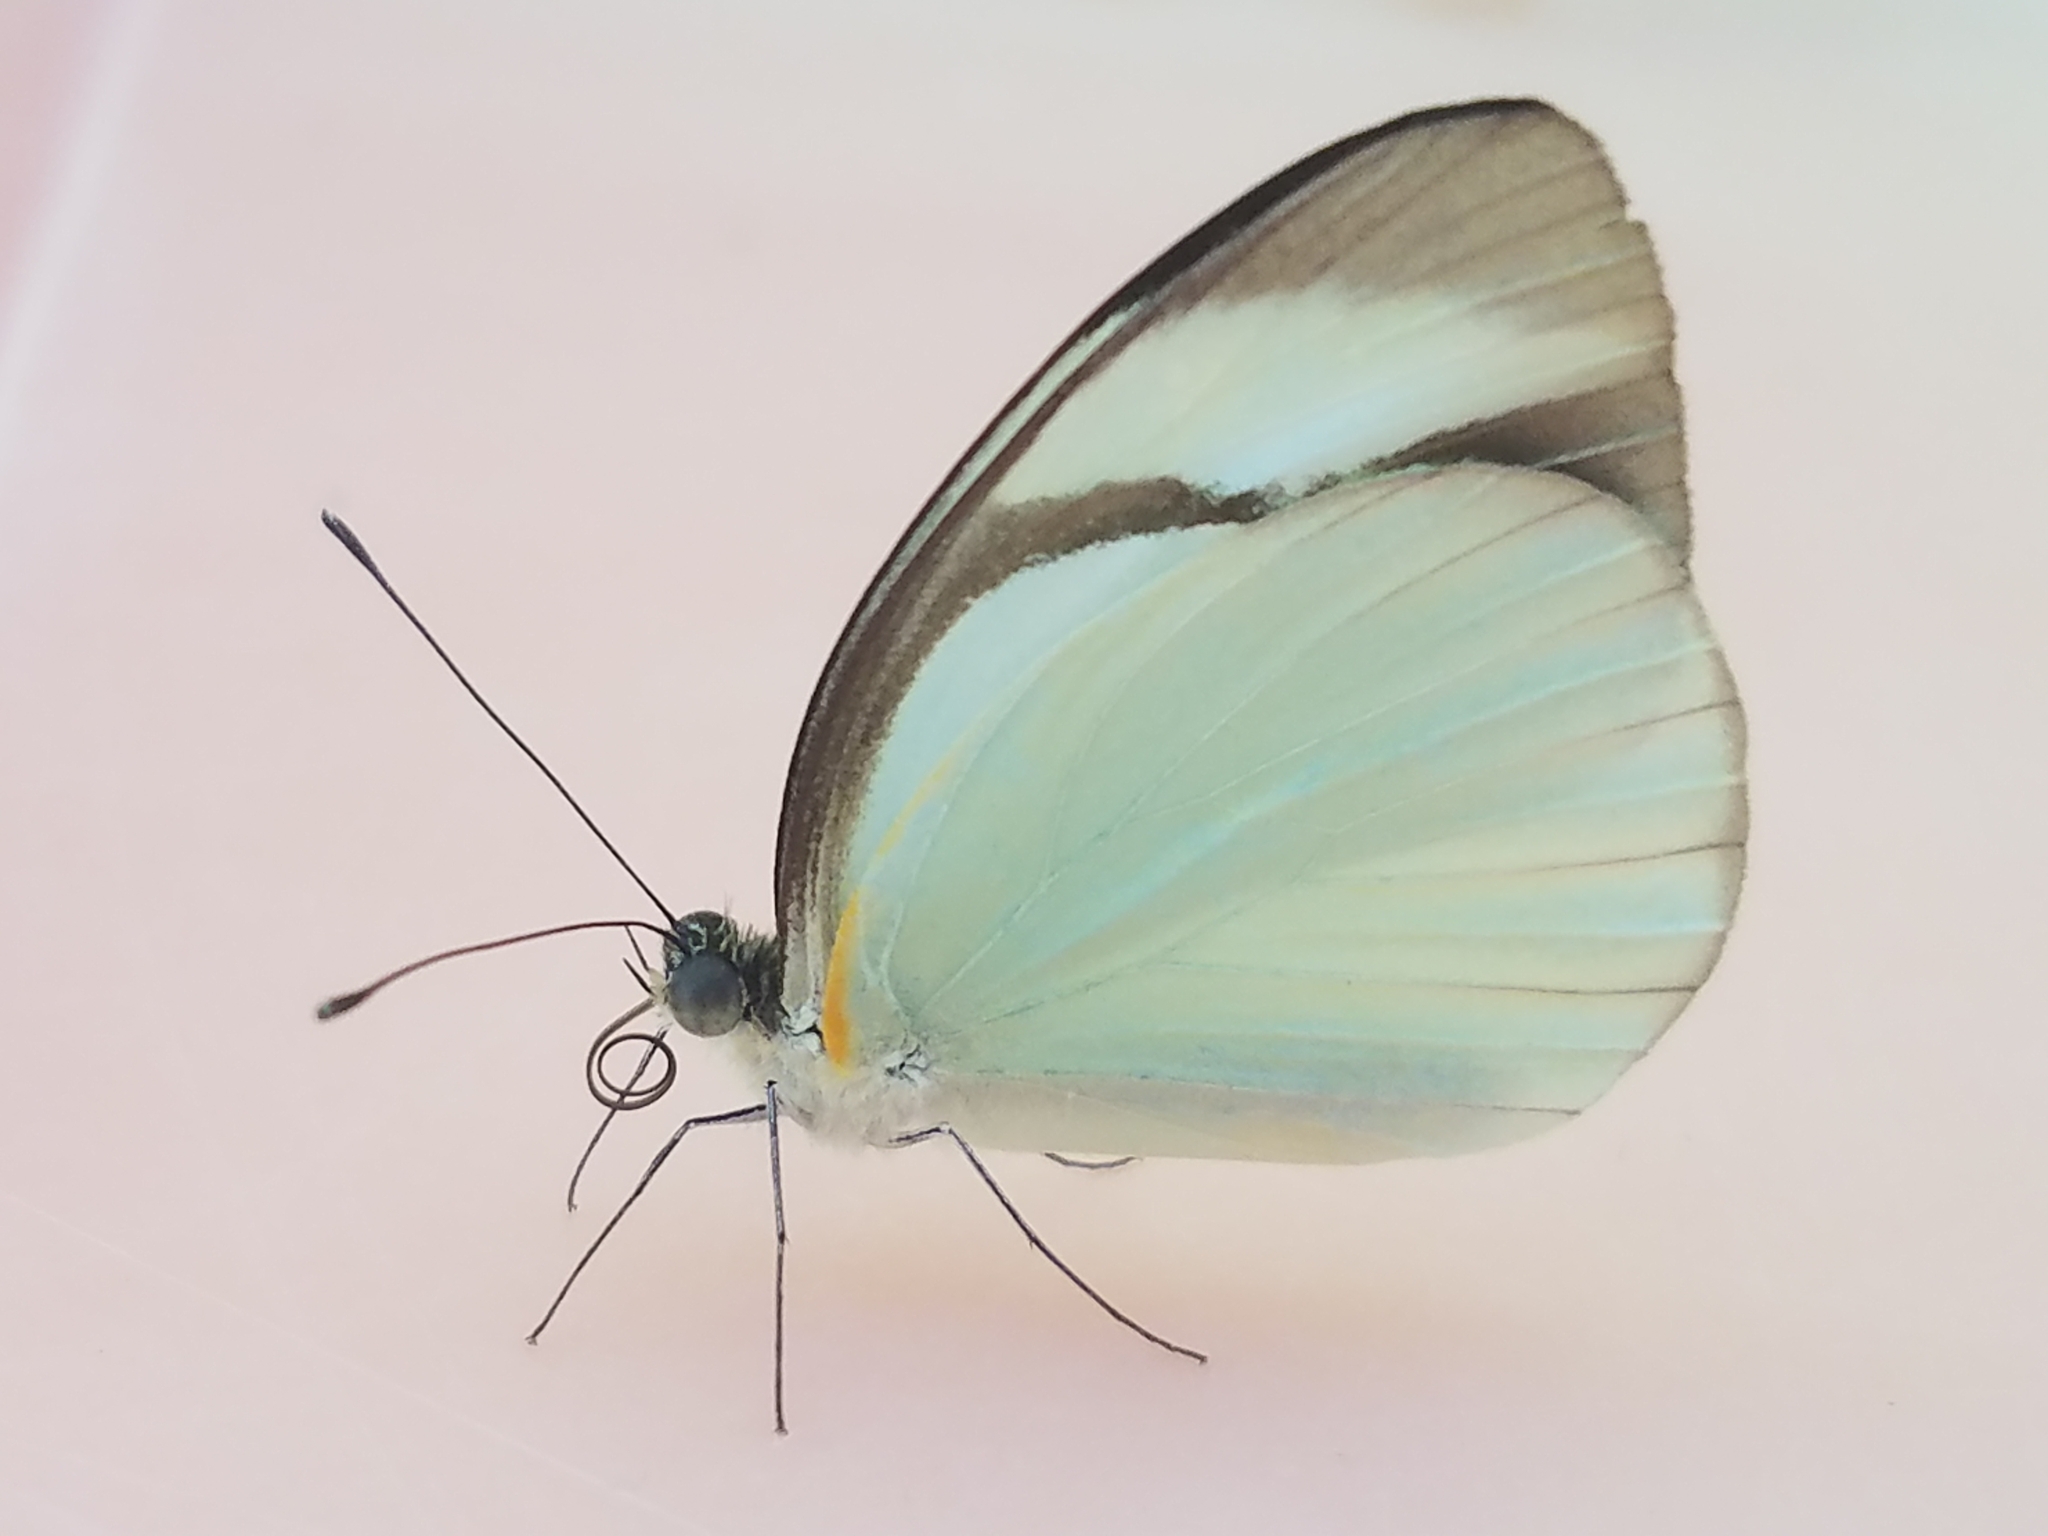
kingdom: Animalia
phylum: Arthropoda
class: Insecta
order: Lepidoptera
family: Pieridae
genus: Itaballia
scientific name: Itaballia demophile
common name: Cross-barred white
